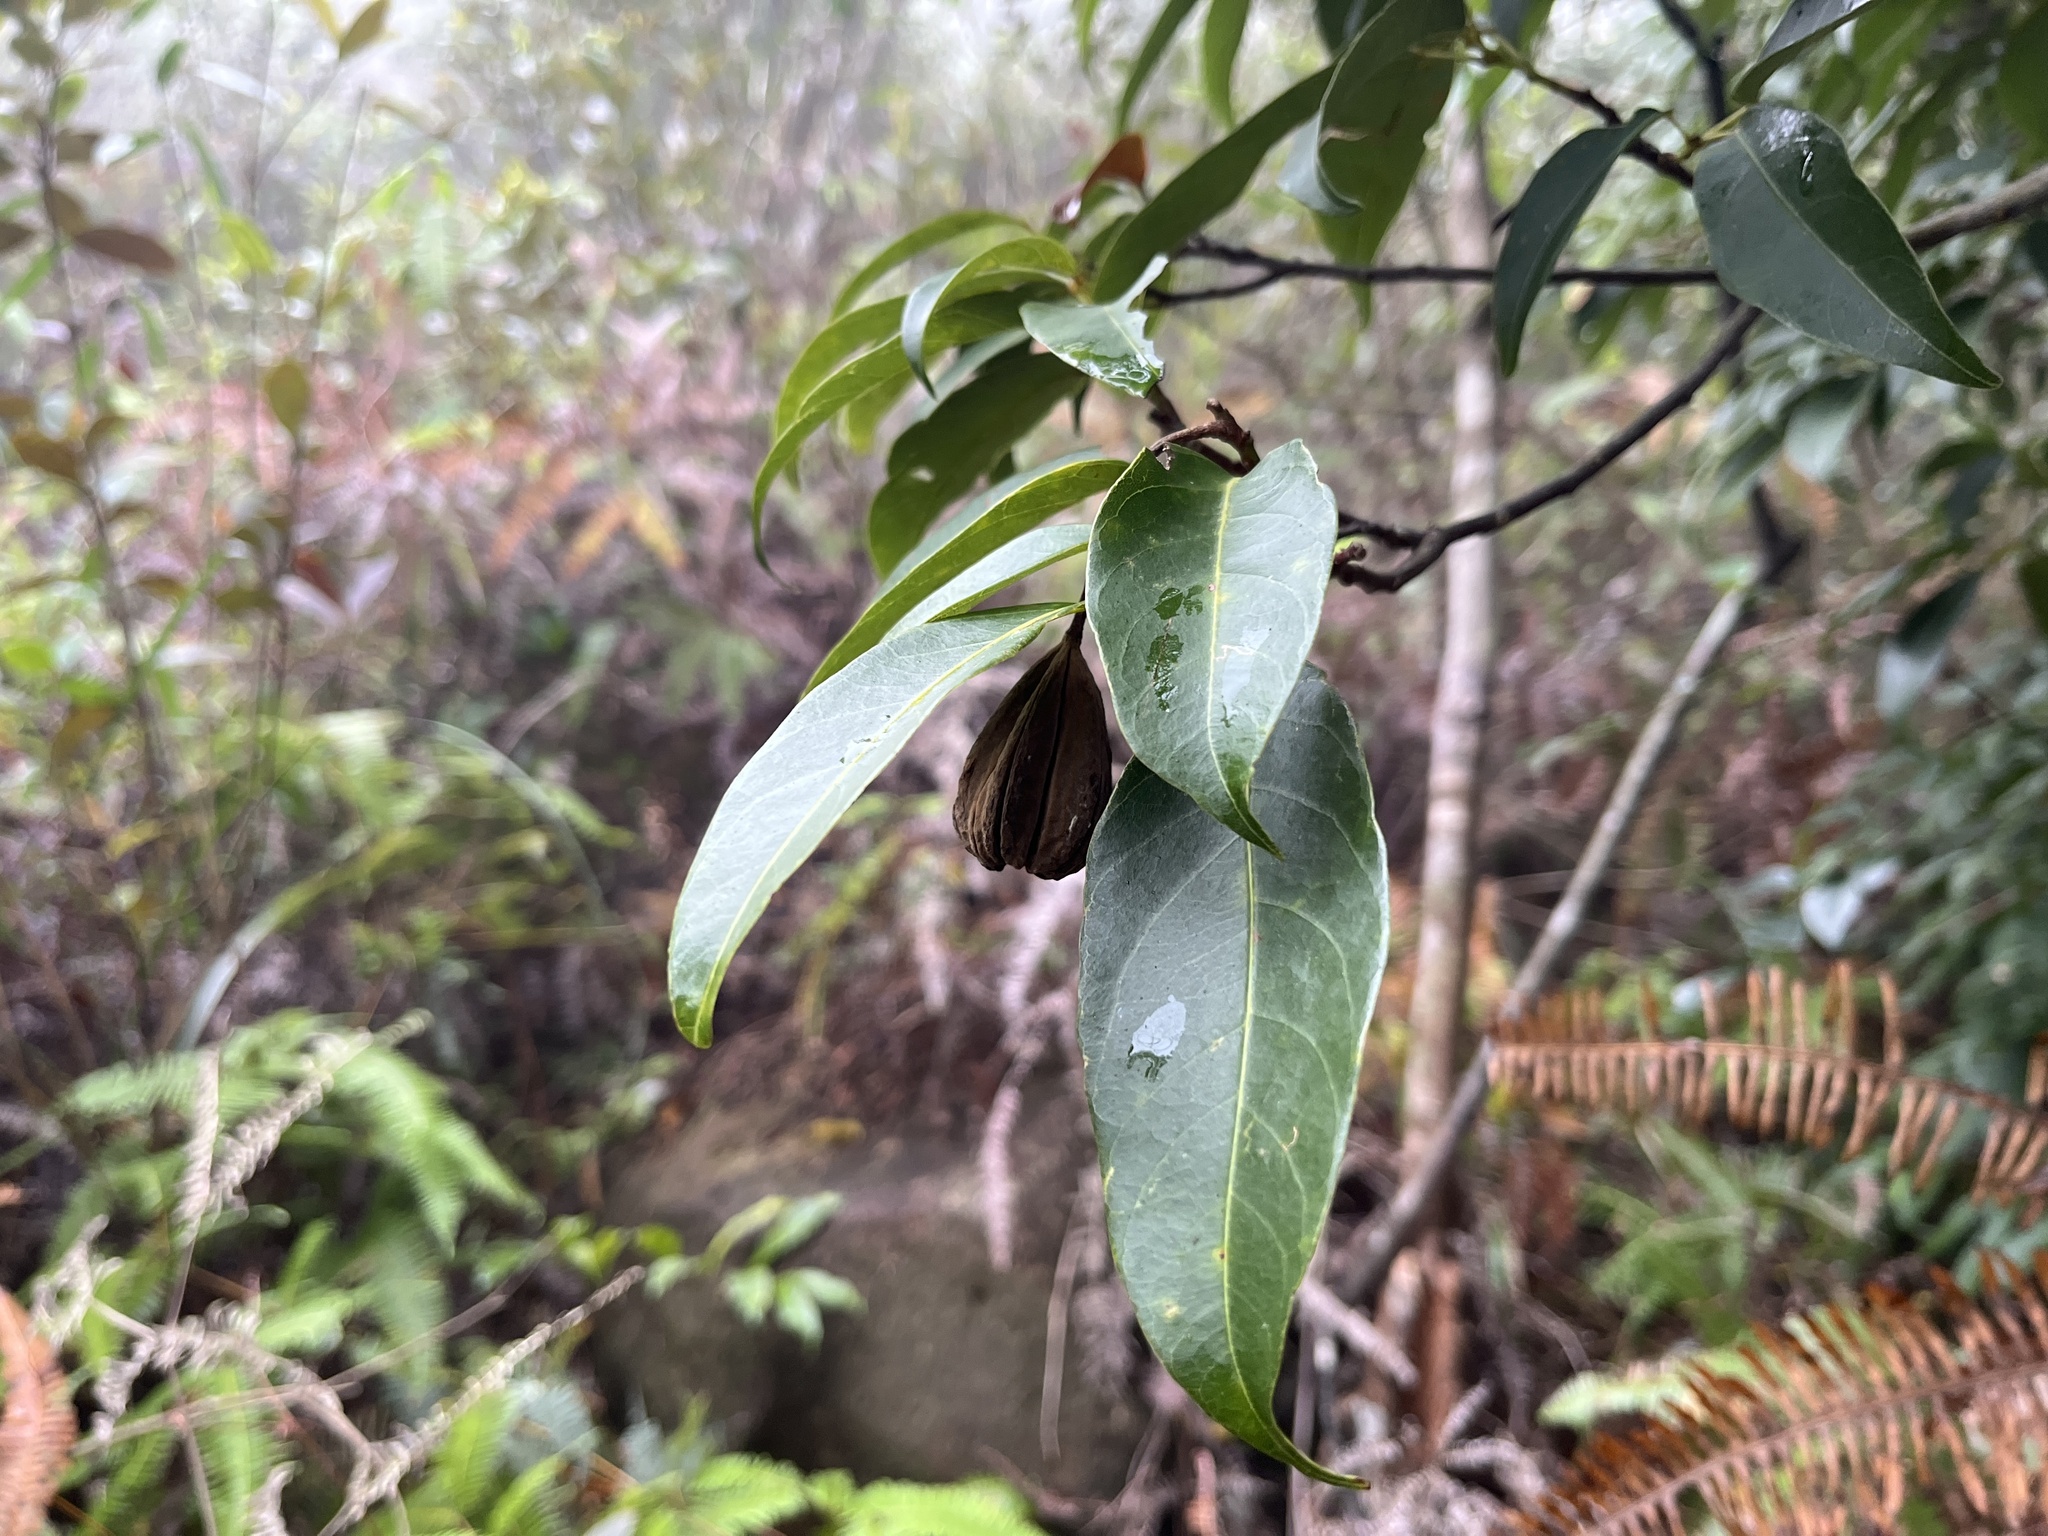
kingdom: Plantae
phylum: Tracheophyta
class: Magnoliopsida
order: Malvales
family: Malvaceae
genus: Reevesia
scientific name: Reevesia thyrsoidea
